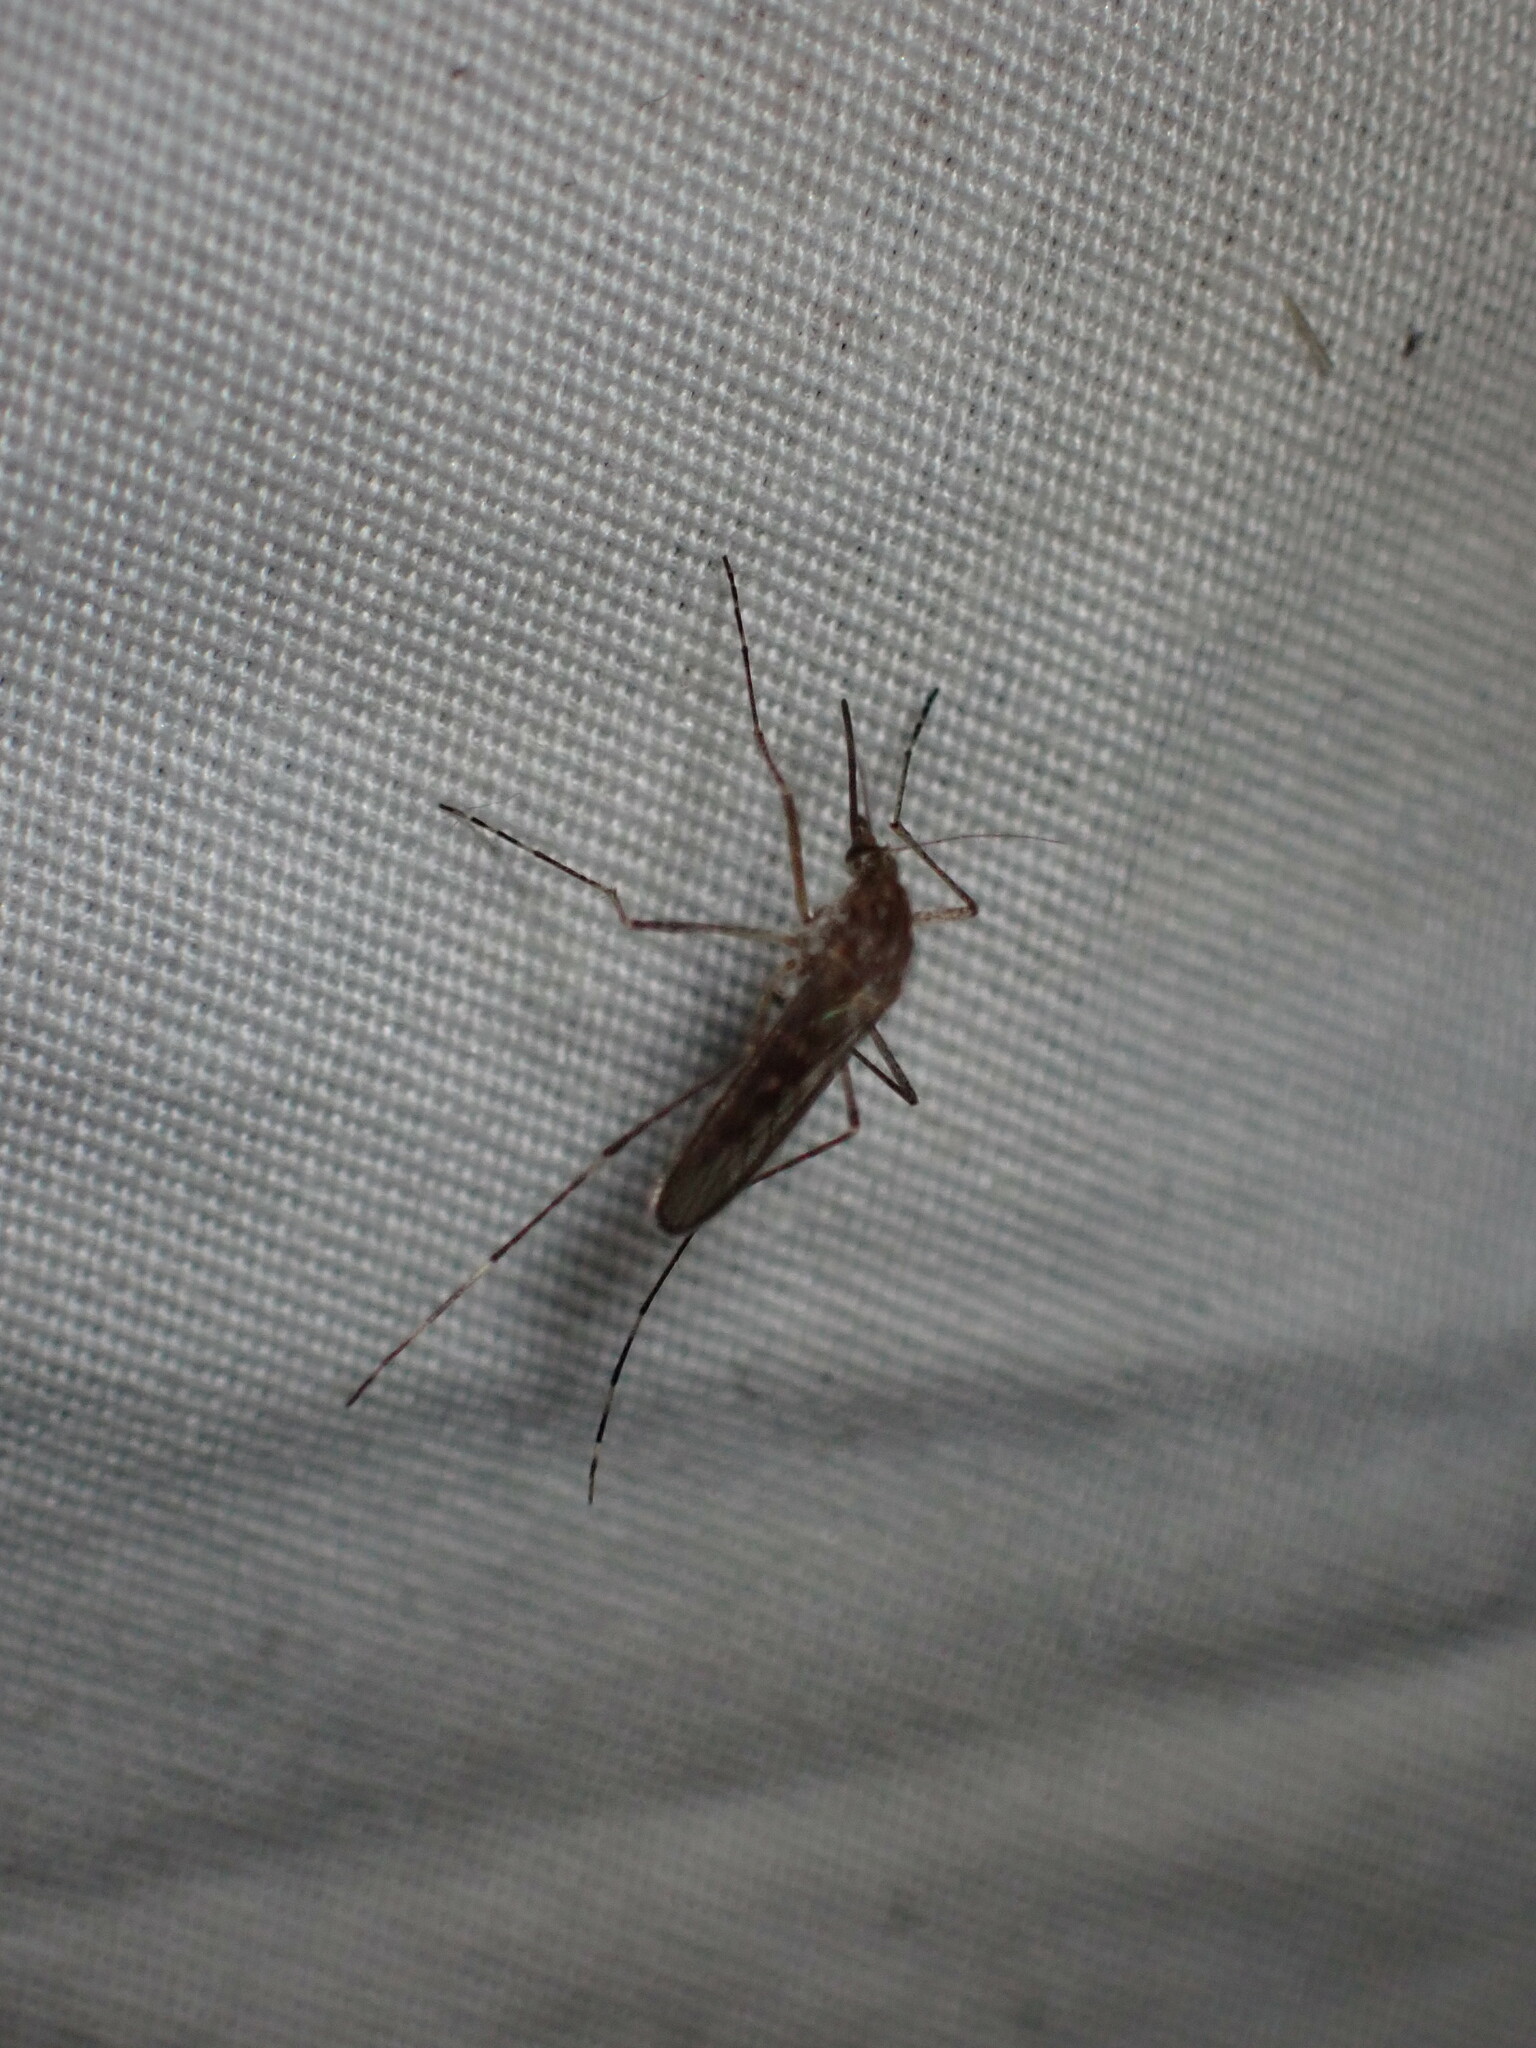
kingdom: Animalia
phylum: Arthropoda
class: Insecta
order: Diptera
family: Culicidae
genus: Aedes
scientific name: Aedes increpitus
